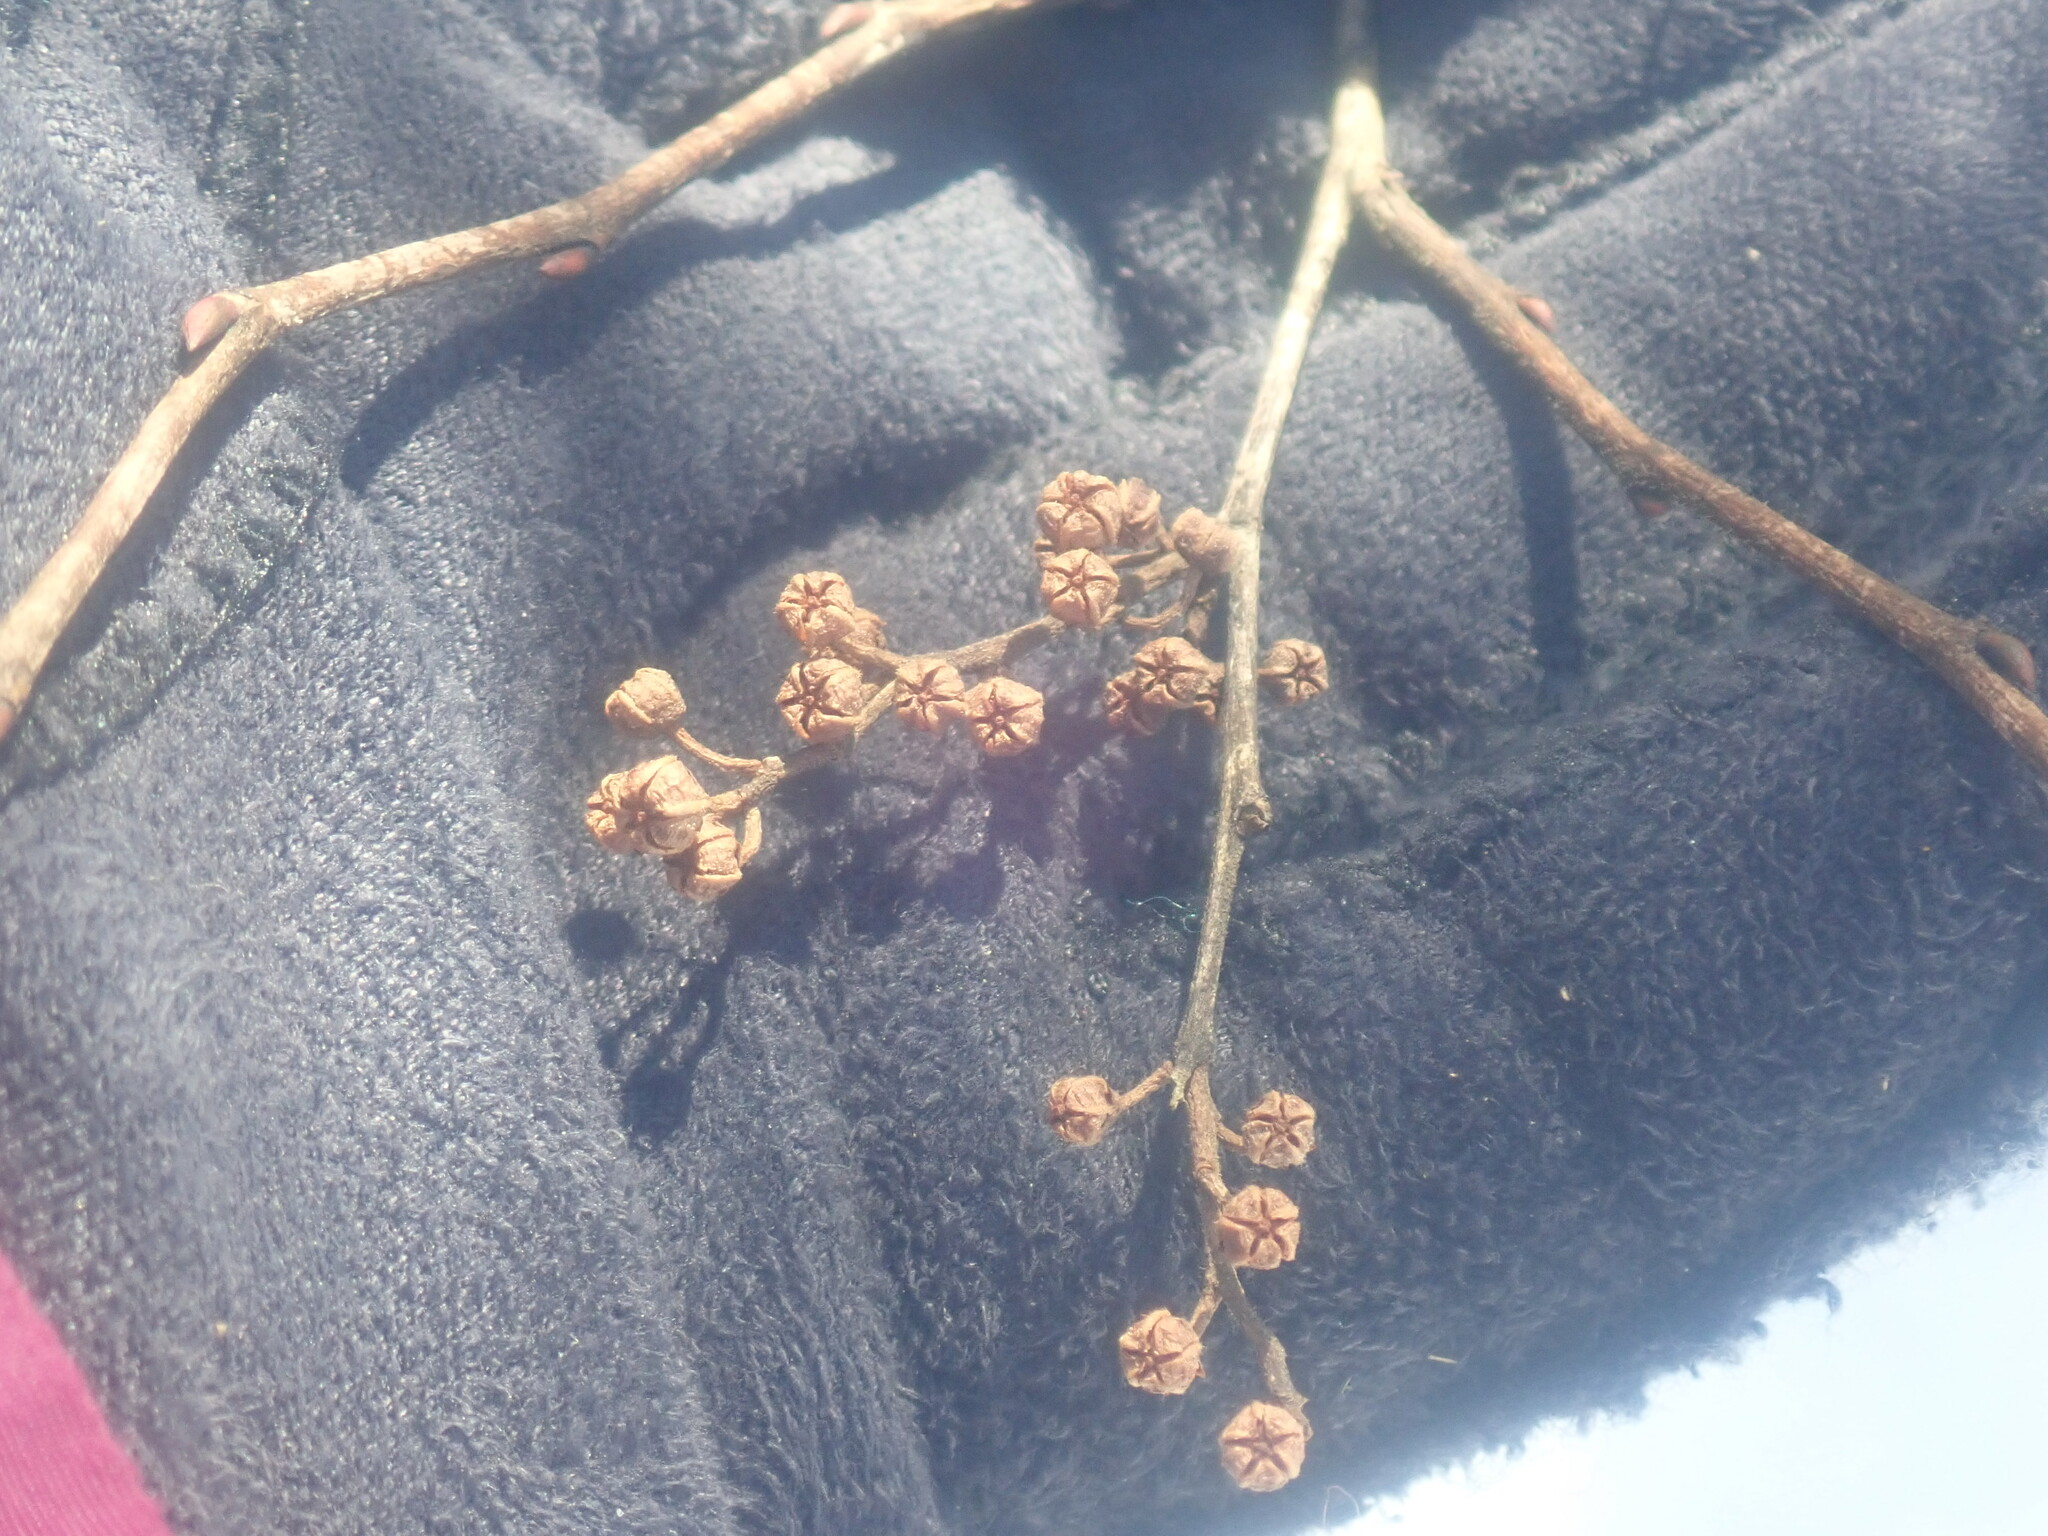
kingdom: Plantae
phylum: Tracheophyta
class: Magnoliopsida
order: Ericales
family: Ericaceae
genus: Lyonia
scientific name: Lyonia ligustrina
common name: Maleberry
